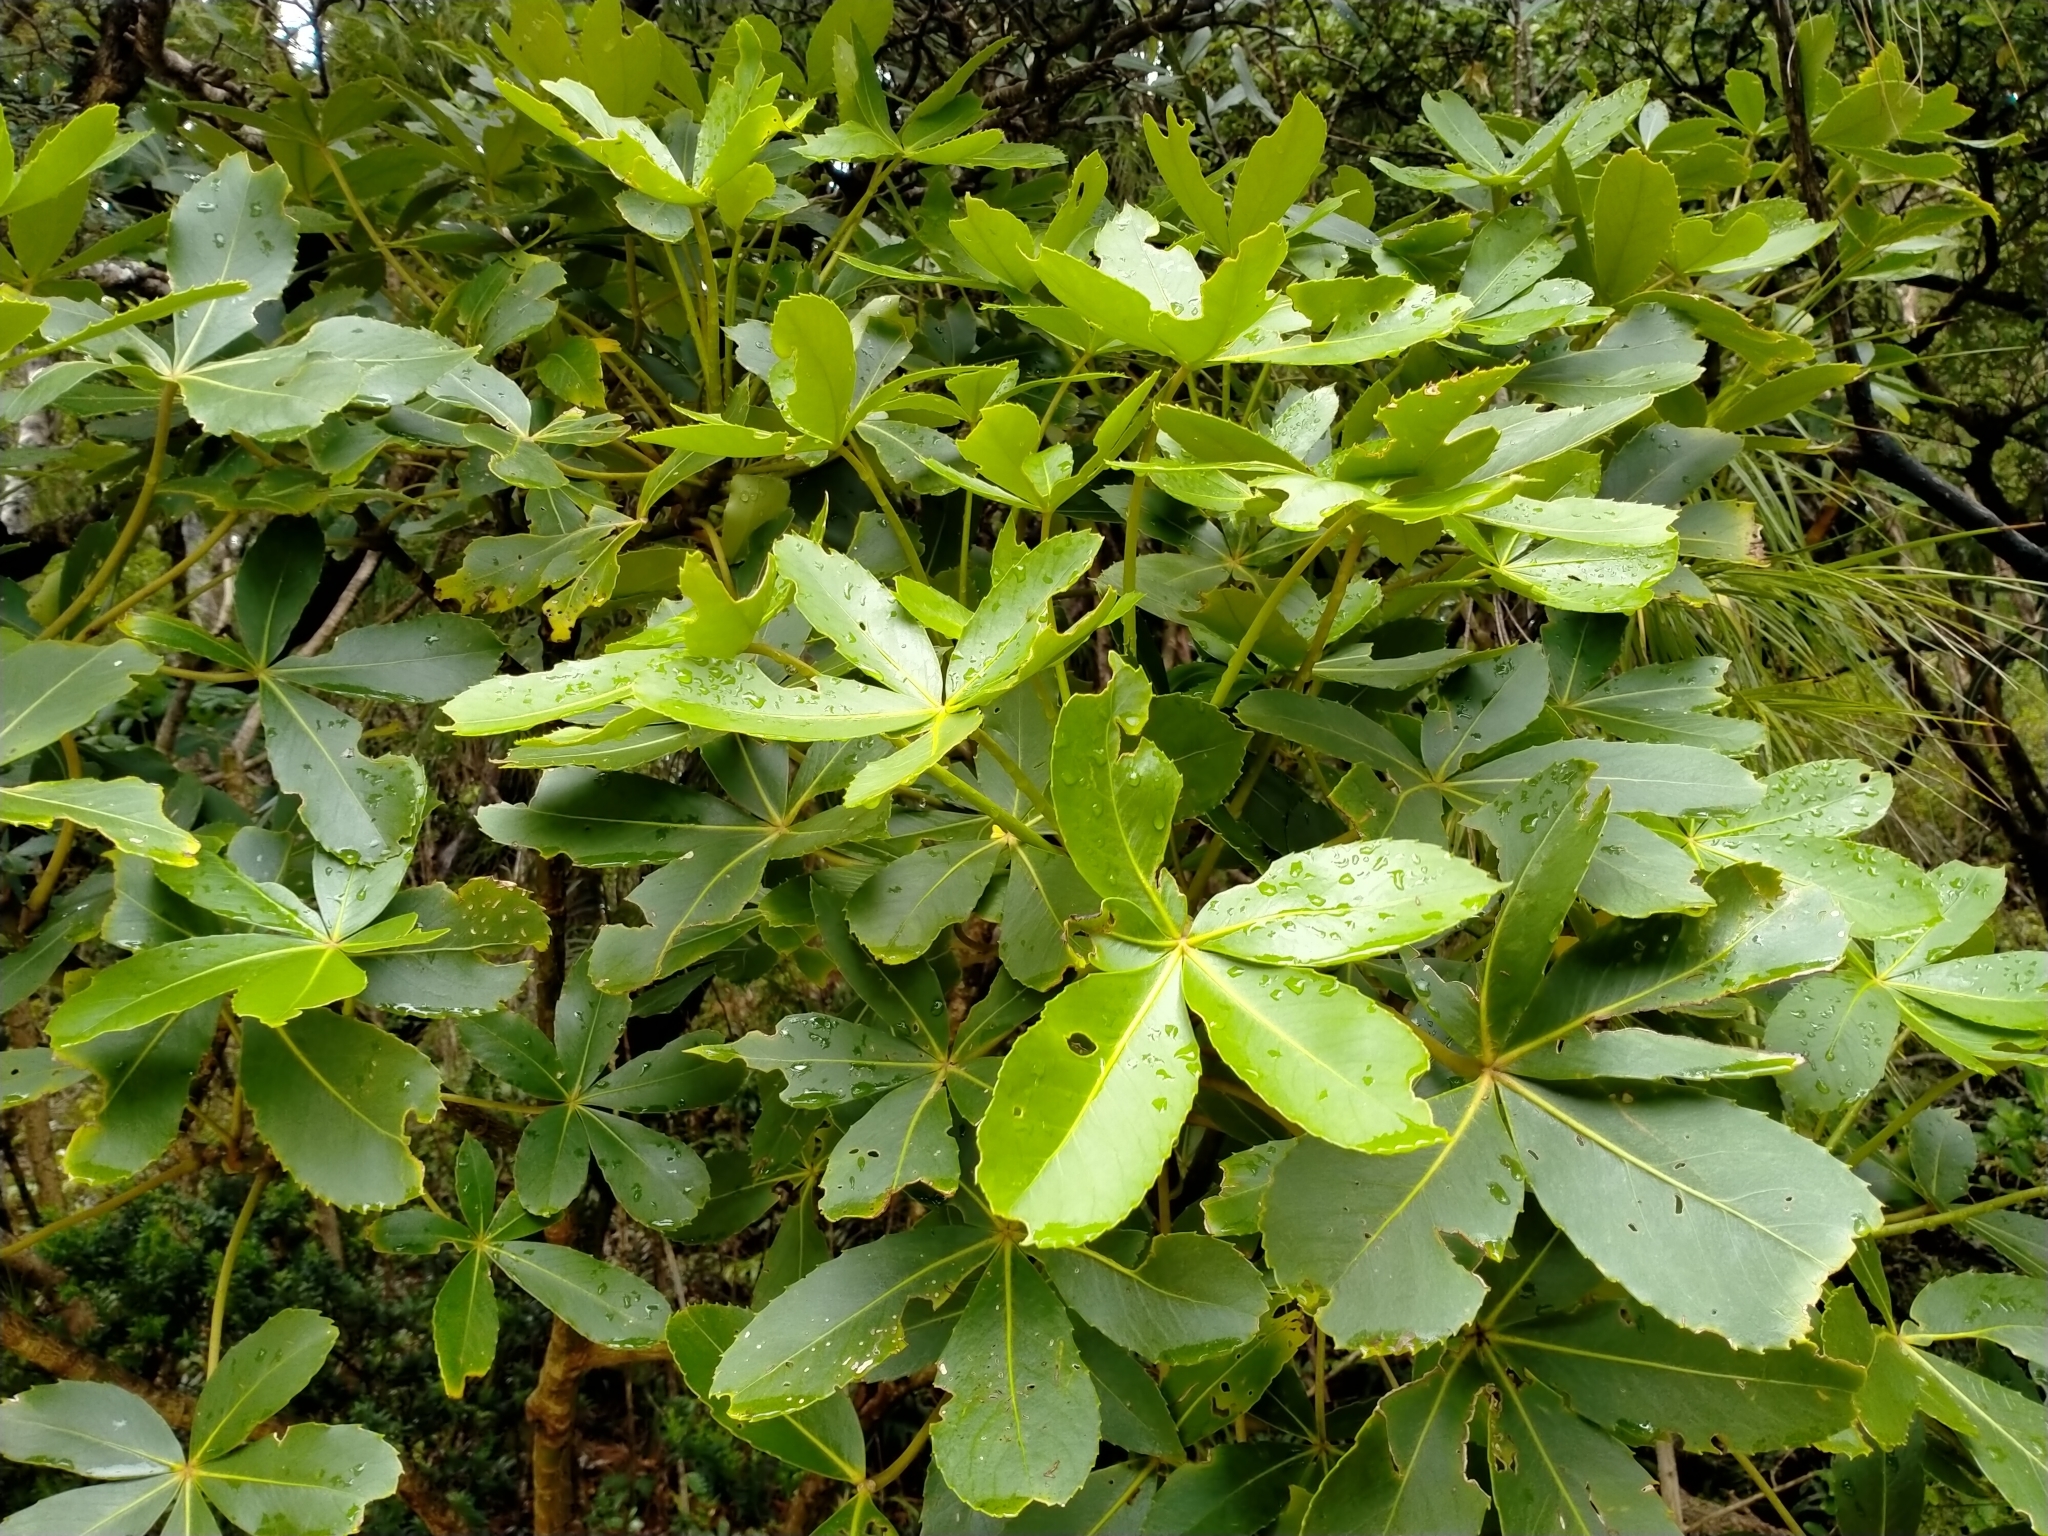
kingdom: Plantae
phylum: Tracheophyta
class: Magnoliopsida
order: Apiales
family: Araliaceae
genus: Neopanax
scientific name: Neopanax colensoi
